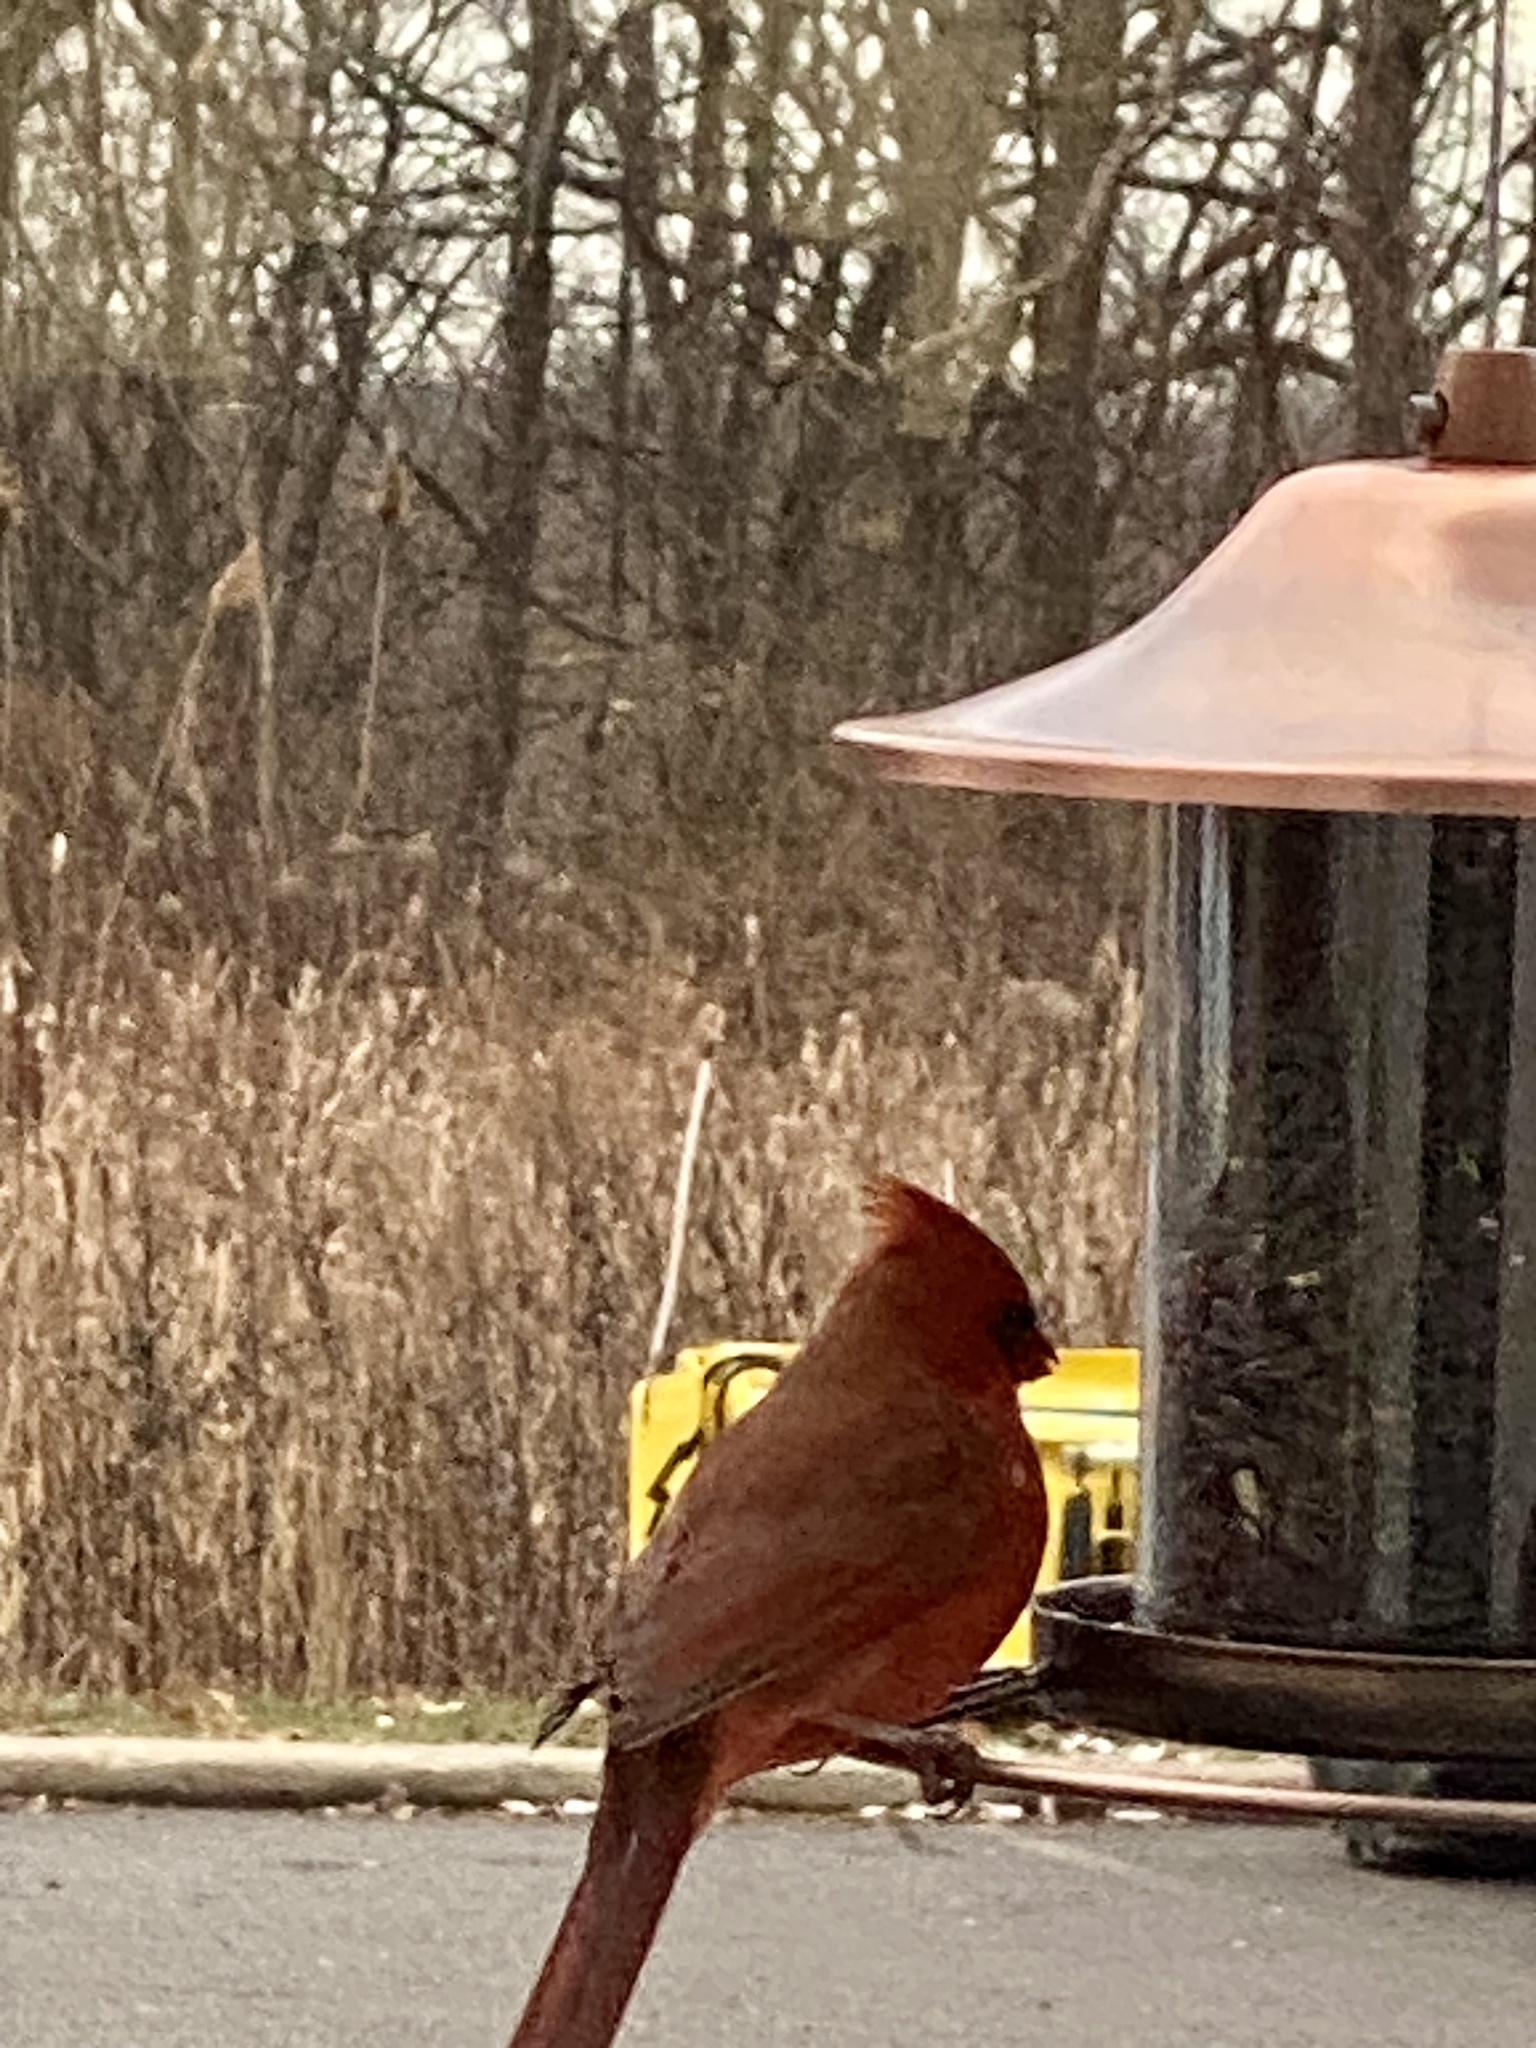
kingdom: Animalia
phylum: Chordata
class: Aves
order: Passeriformes
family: Cardinalidae
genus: Cardinalis
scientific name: Cardinalis cardinalis
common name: Northern cardinal
